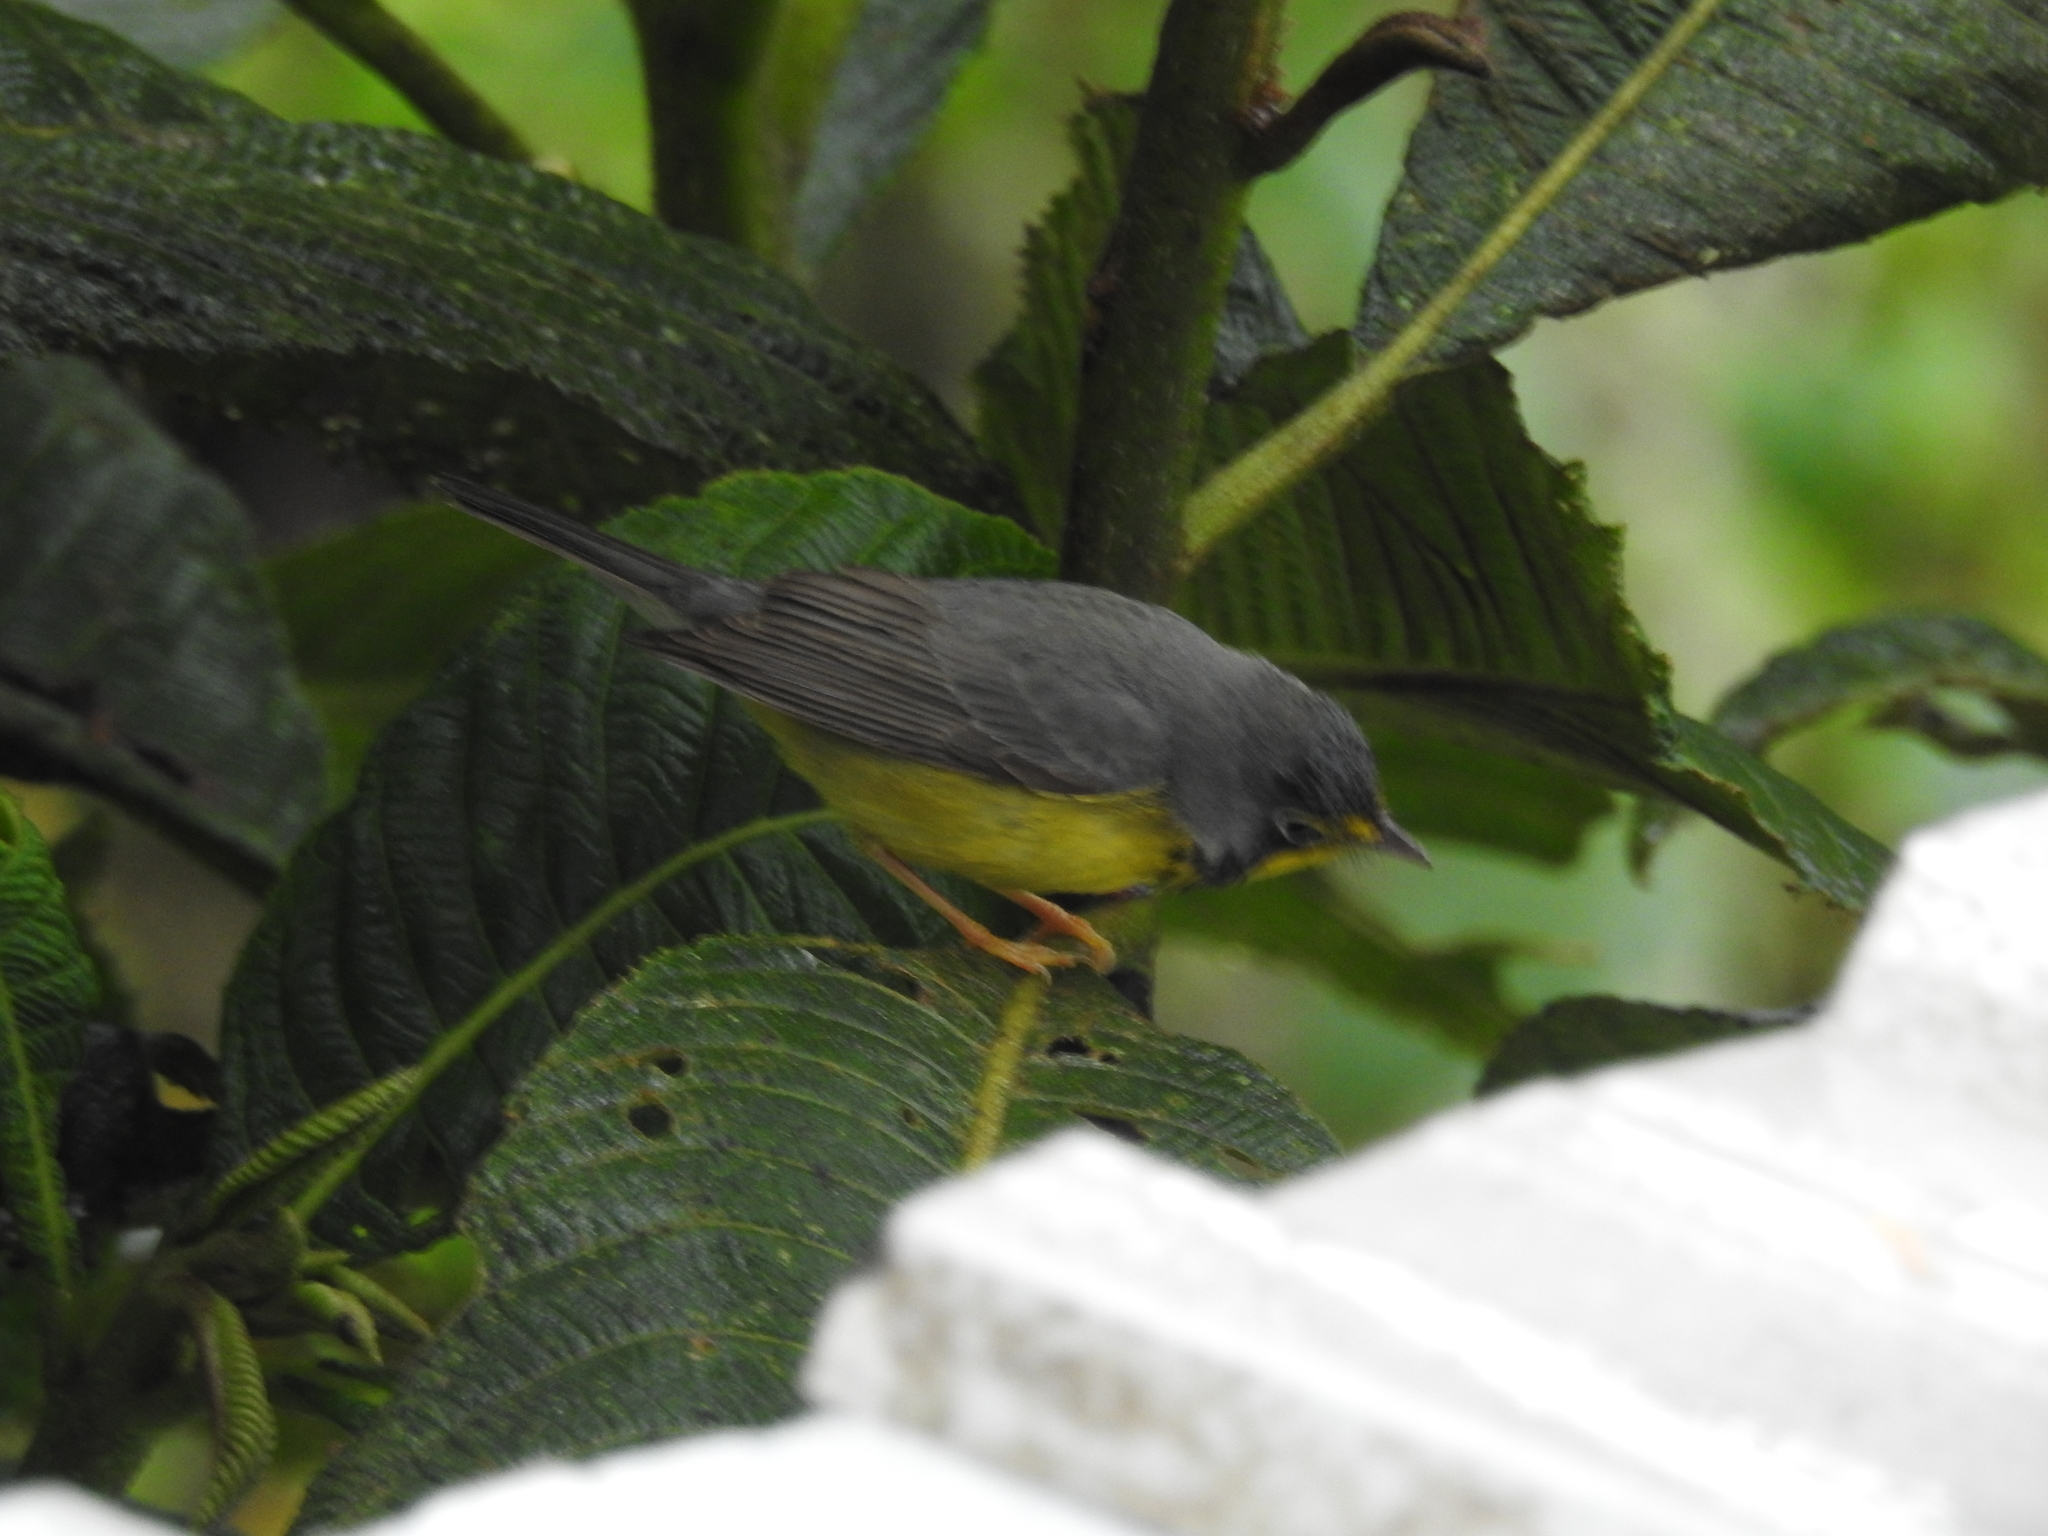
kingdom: Animalia
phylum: Chordata
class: Aves
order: Passeriformes
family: Parulidae
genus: Cardellina
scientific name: Cardellina canadensis
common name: Canada warbler
